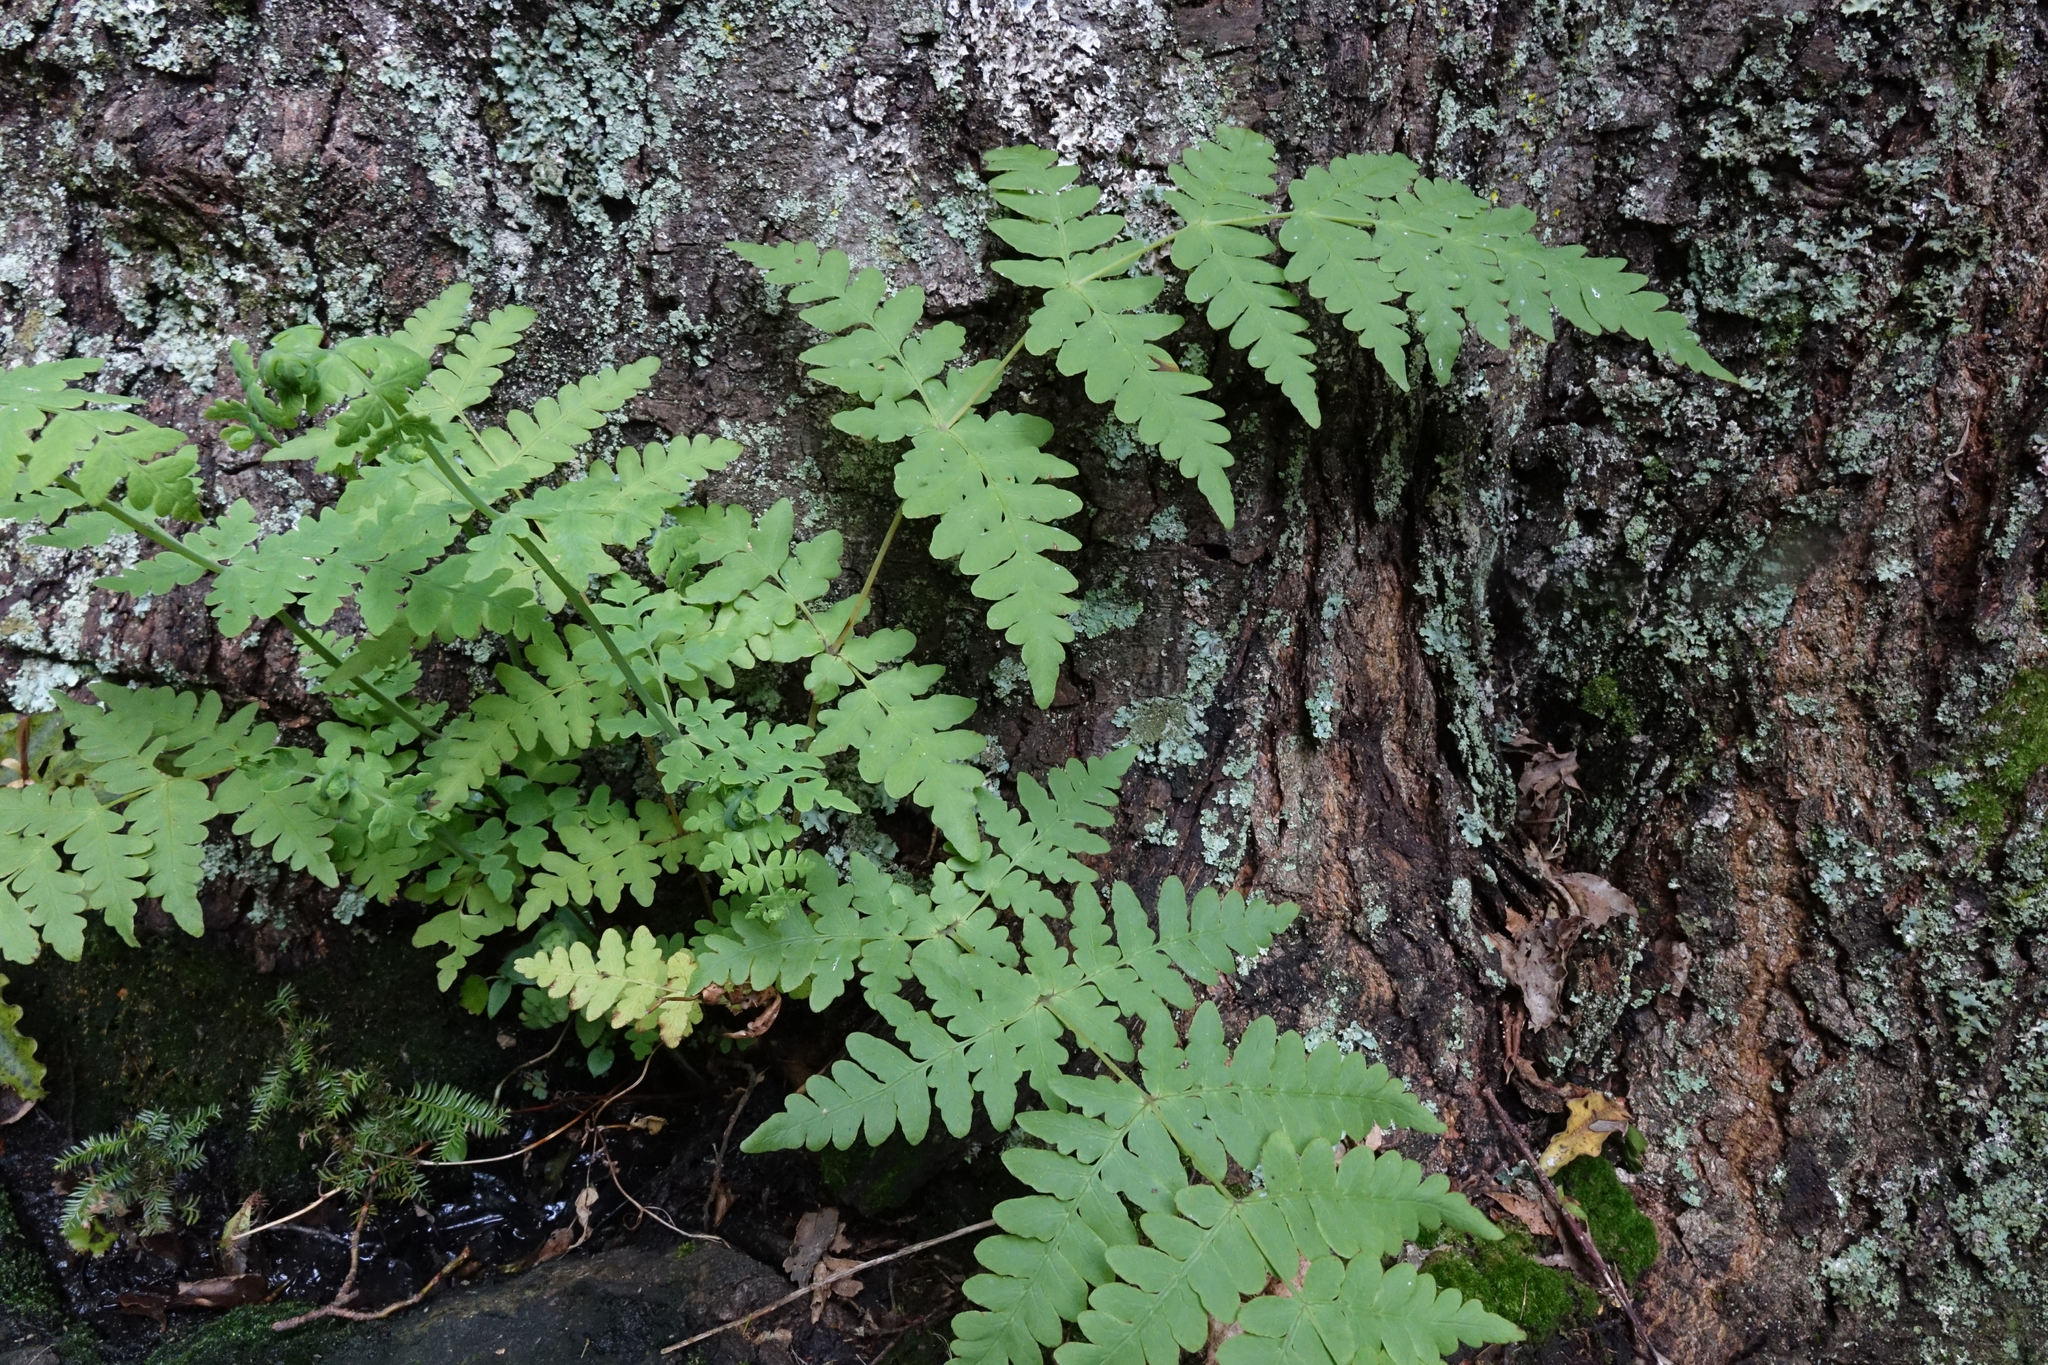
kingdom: Plantae
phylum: Tracheophyta
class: Polypodiopsida
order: Polypodiales
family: Dennstaedtiaceae
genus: Histiopteris
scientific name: Histiopteris incisa
